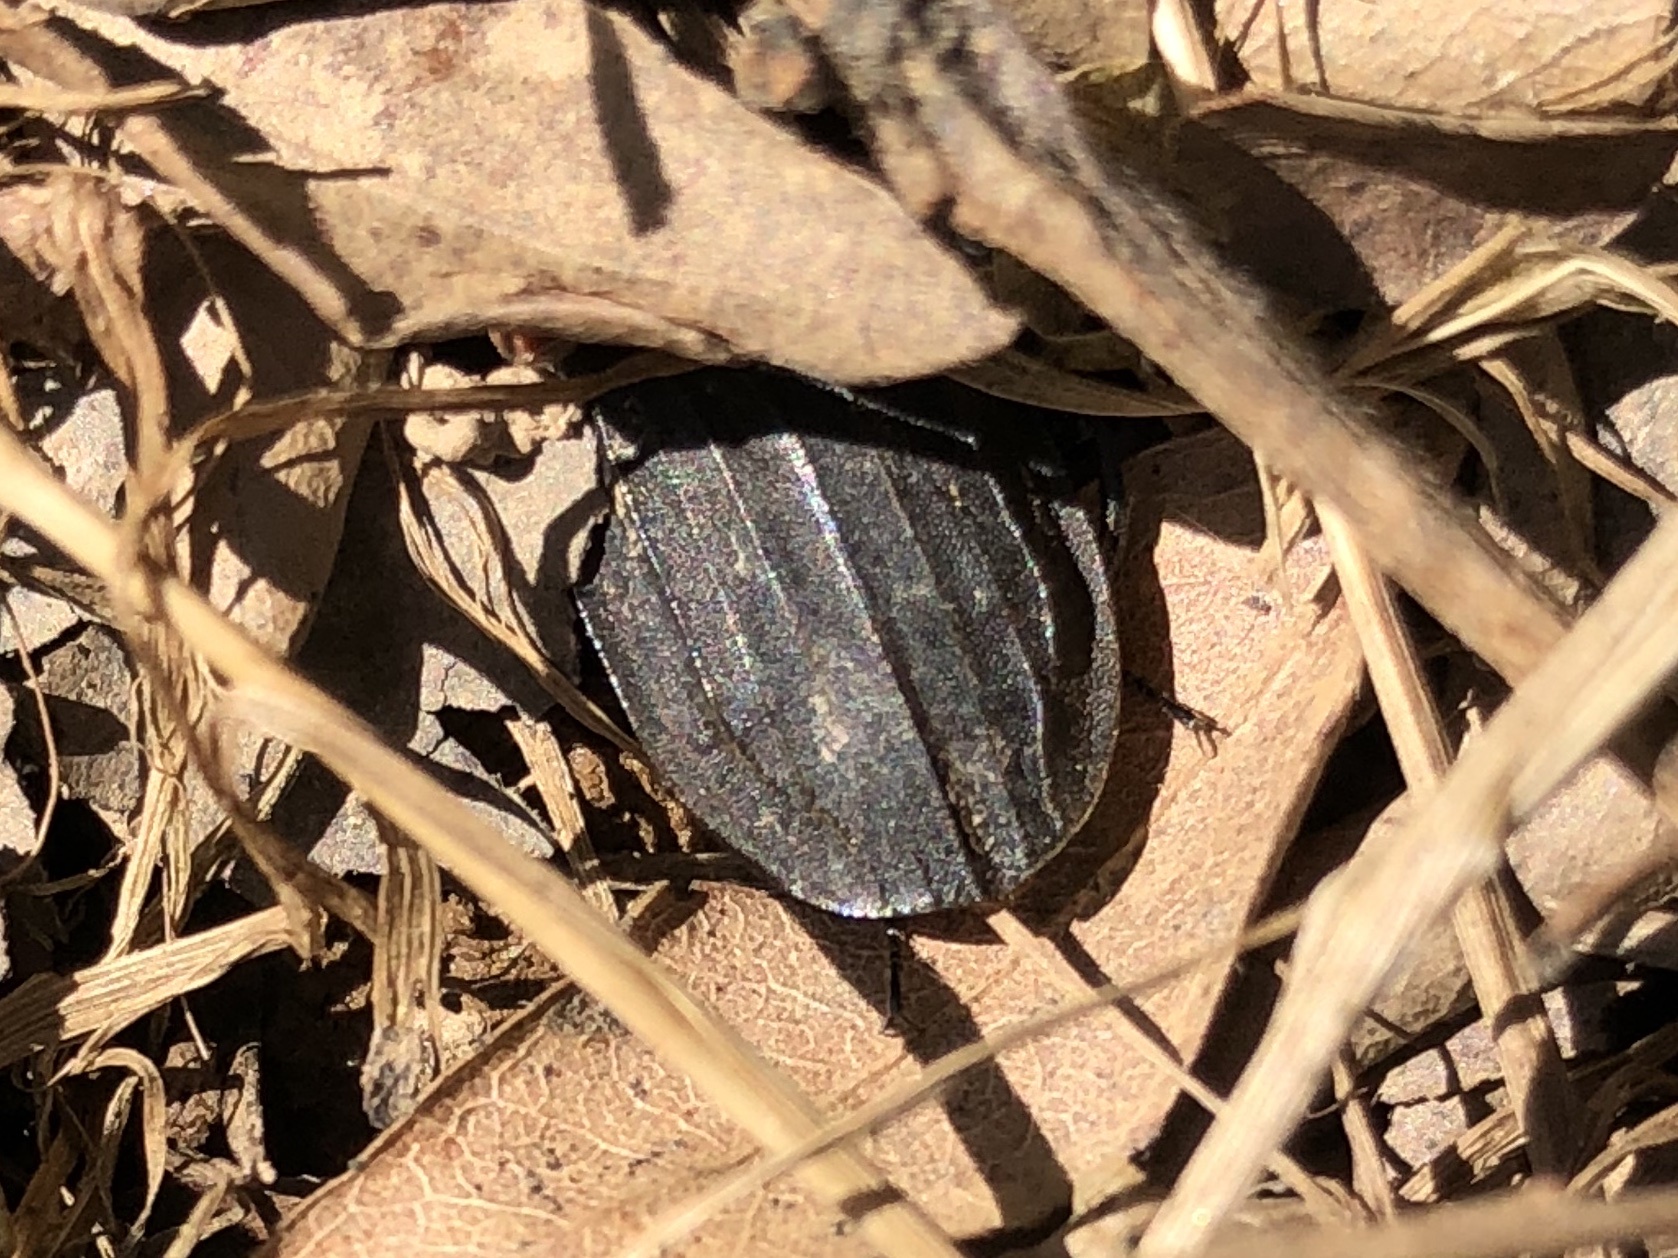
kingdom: Animalia
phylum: Arthropoda
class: Insecta
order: Coleoptera
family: Staphylinidae
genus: Oiceoptoma
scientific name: Oiceoptoma noveboracense
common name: Margined carrion beetle
